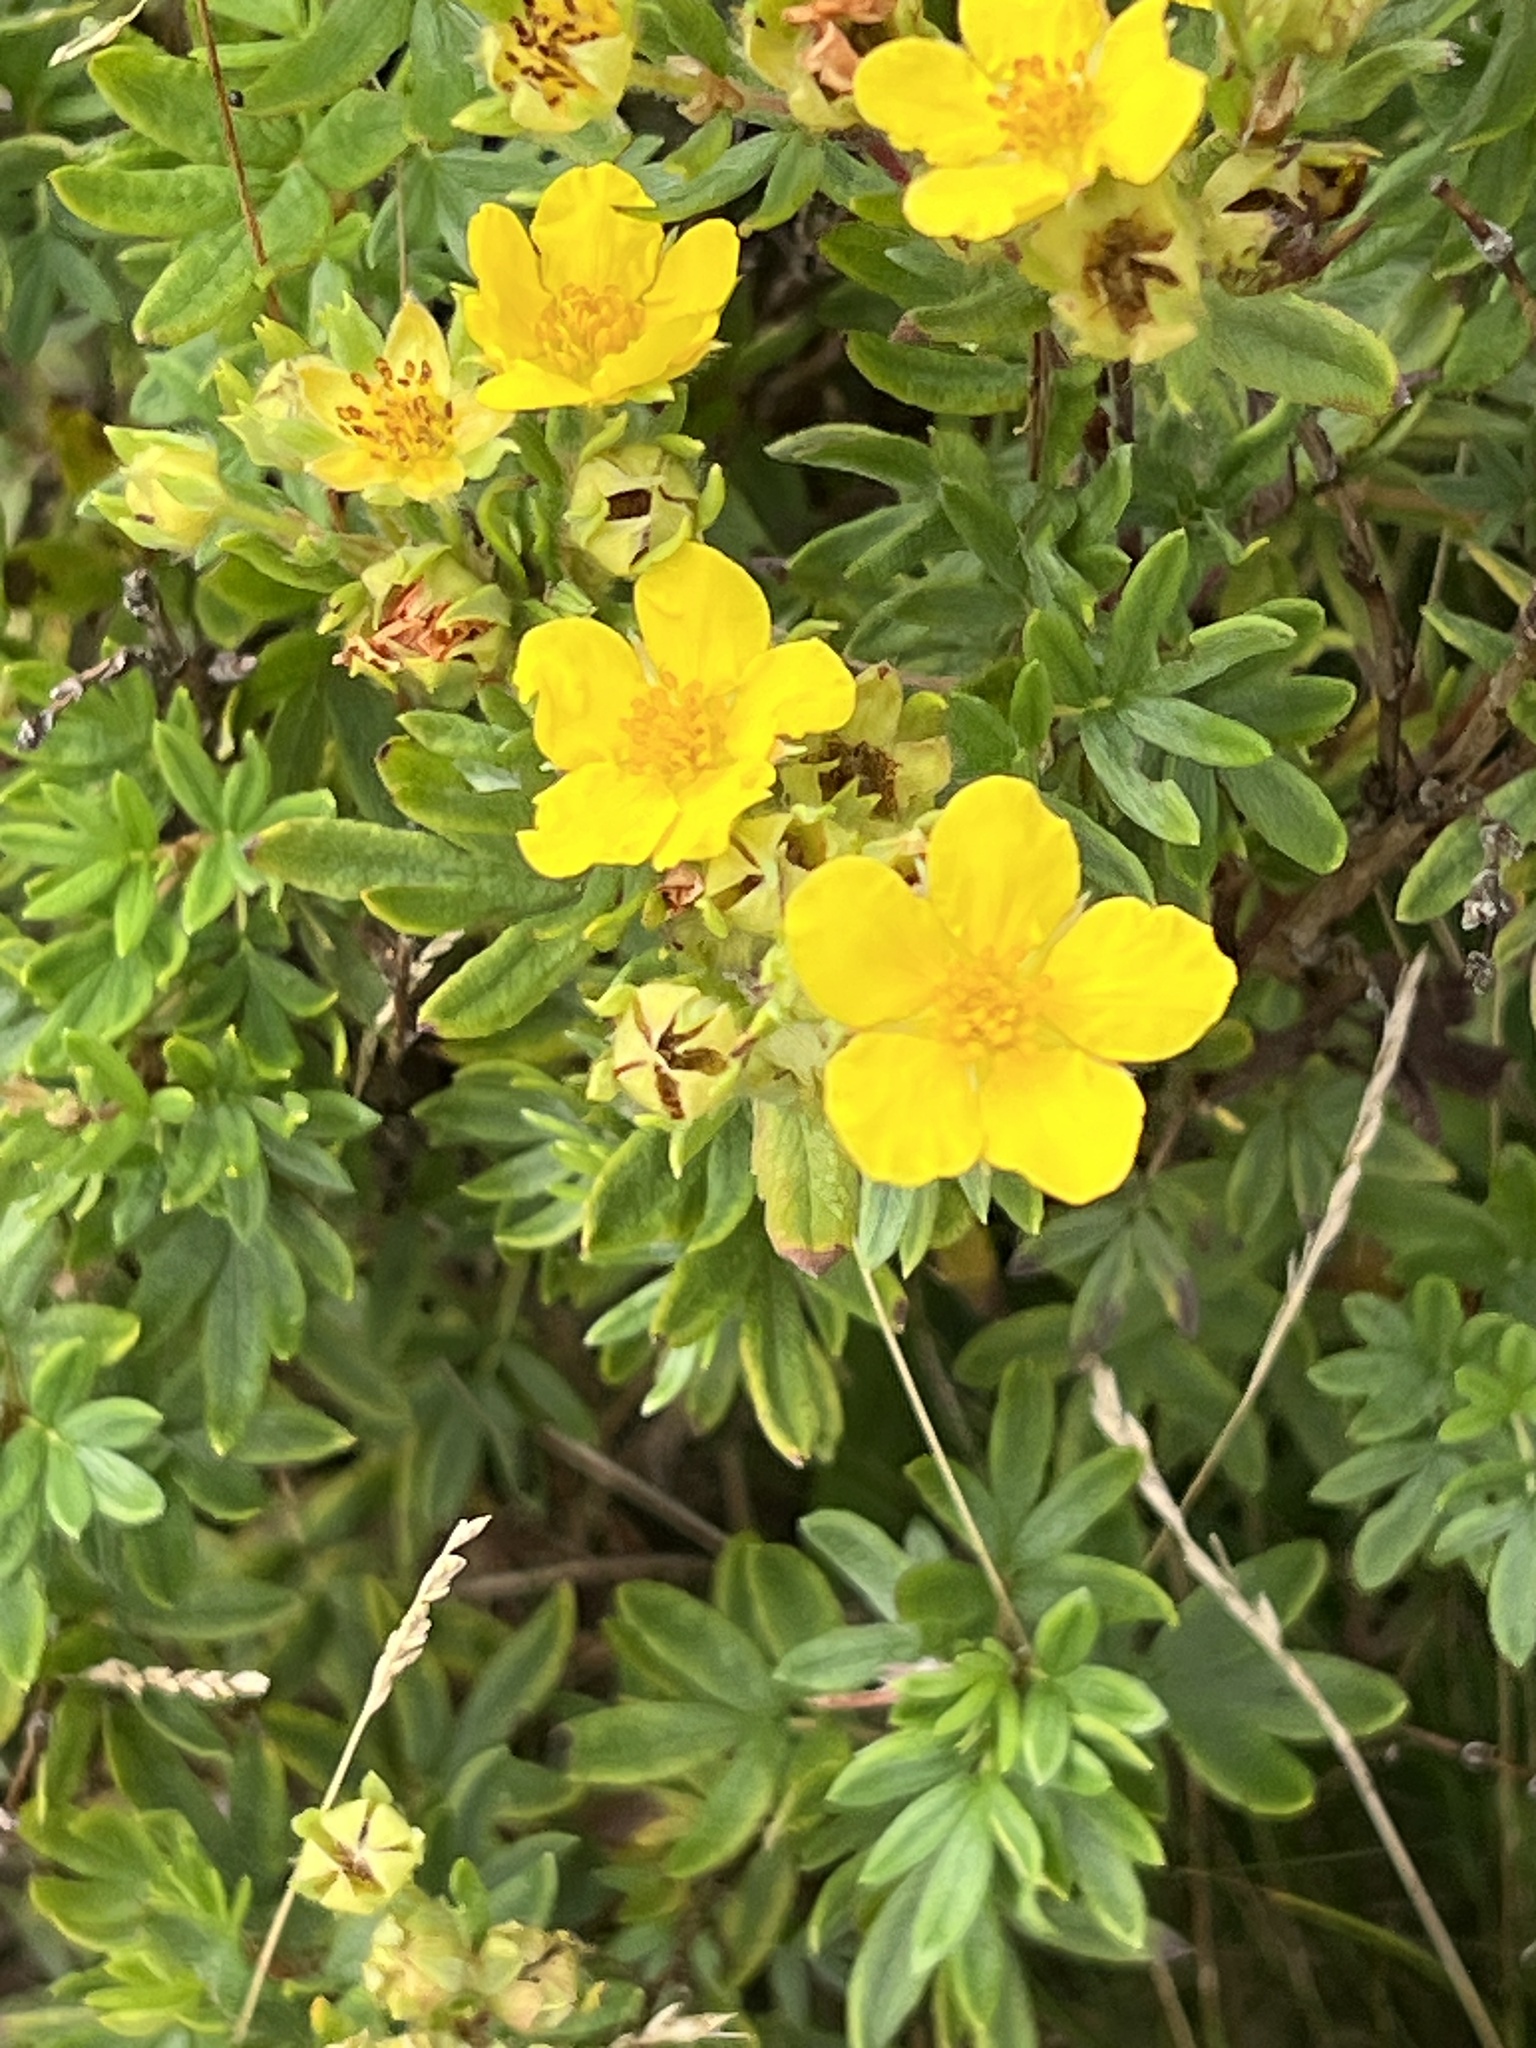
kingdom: Plantae
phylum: Tracheophyta
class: Magnoliopsida
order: Rosales
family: Rosaceae
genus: Dasiphora
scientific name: Dasiphora fruticosa
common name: Shrubby cinquefoil
